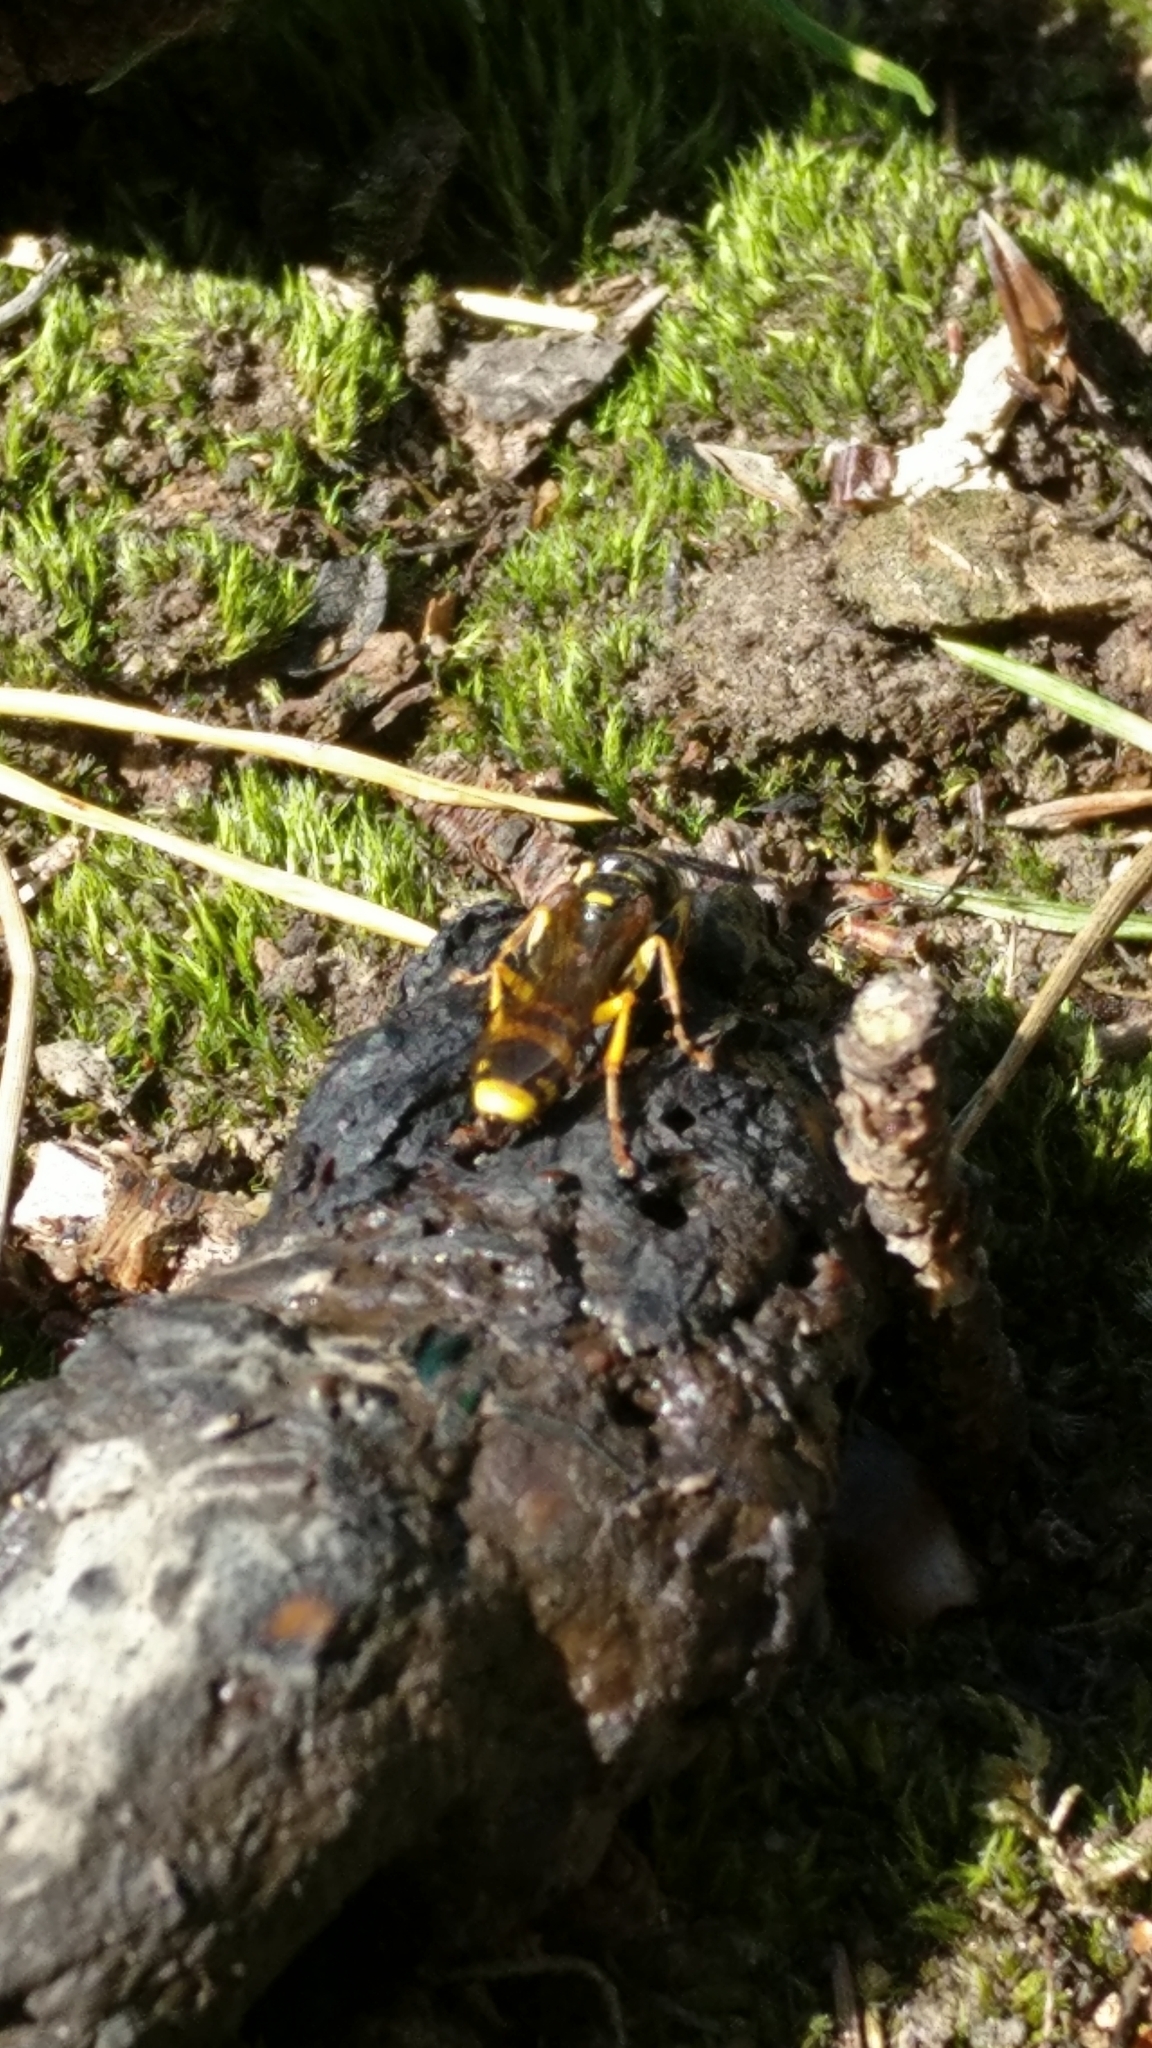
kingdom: Animalia
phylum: Arthropoda
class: Insecta
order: Hymenoptera
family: Crabronidae
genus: Mellinus
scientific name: Mellinus arvensis
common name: Field digger wasp
